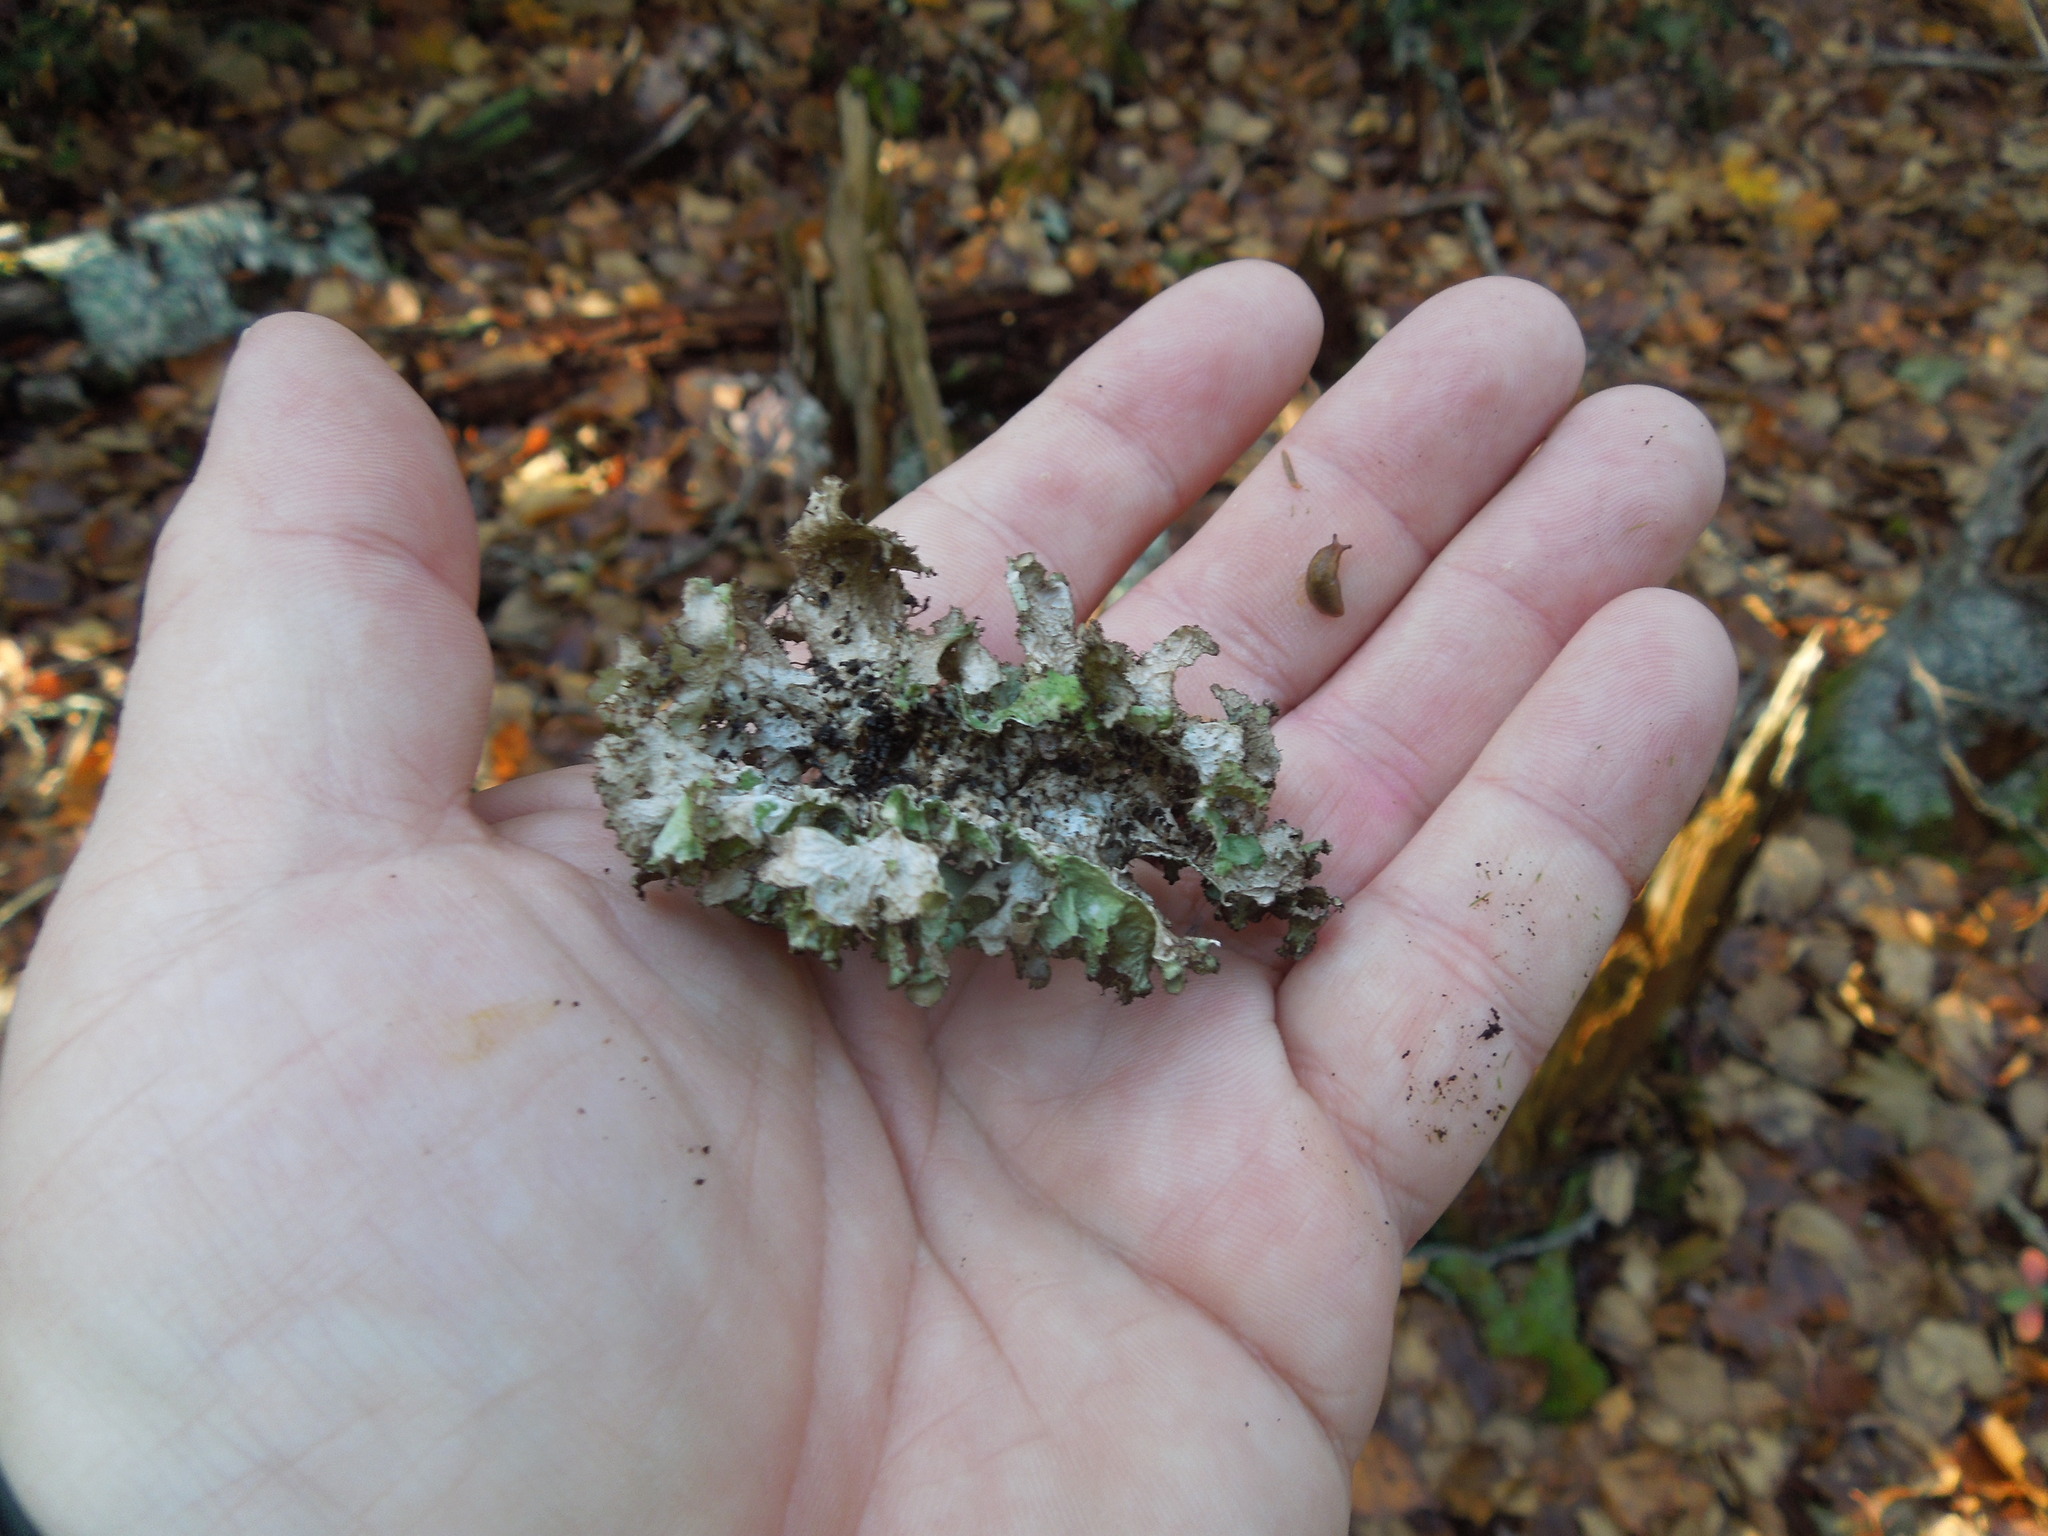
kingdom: Fungi
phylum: Ascomycota
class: Lecanoromycetes
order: Lecanorales
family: Parmeliaceae
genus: Tuckermanopsis
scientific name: Tuckermanopsis
